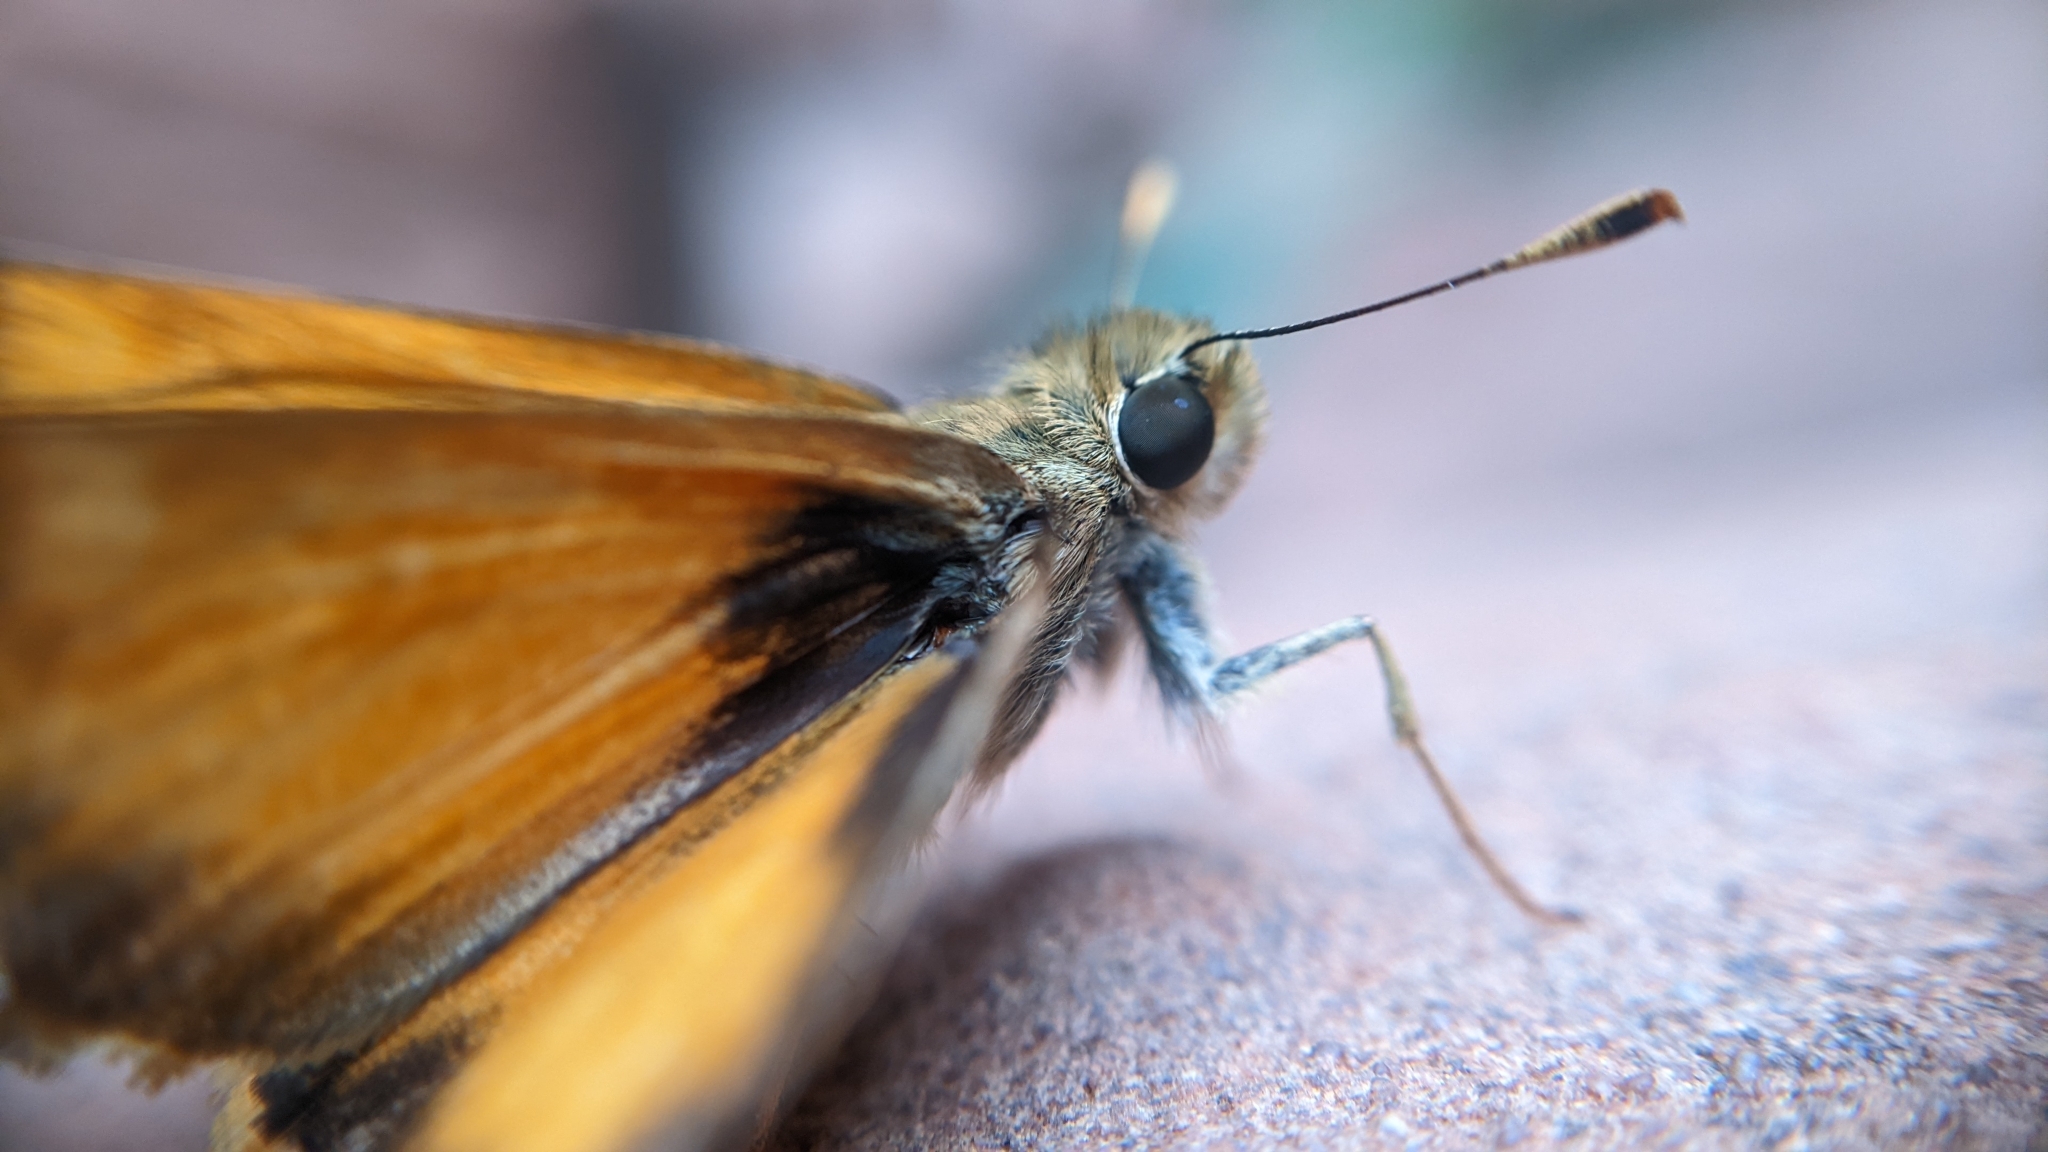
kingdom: Animalia
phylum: Arthropoda
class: Insecta
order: Lepidoptera
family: Hesperiidae
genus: Lon
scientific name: Lon taxiles
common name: Taxiles skipper
